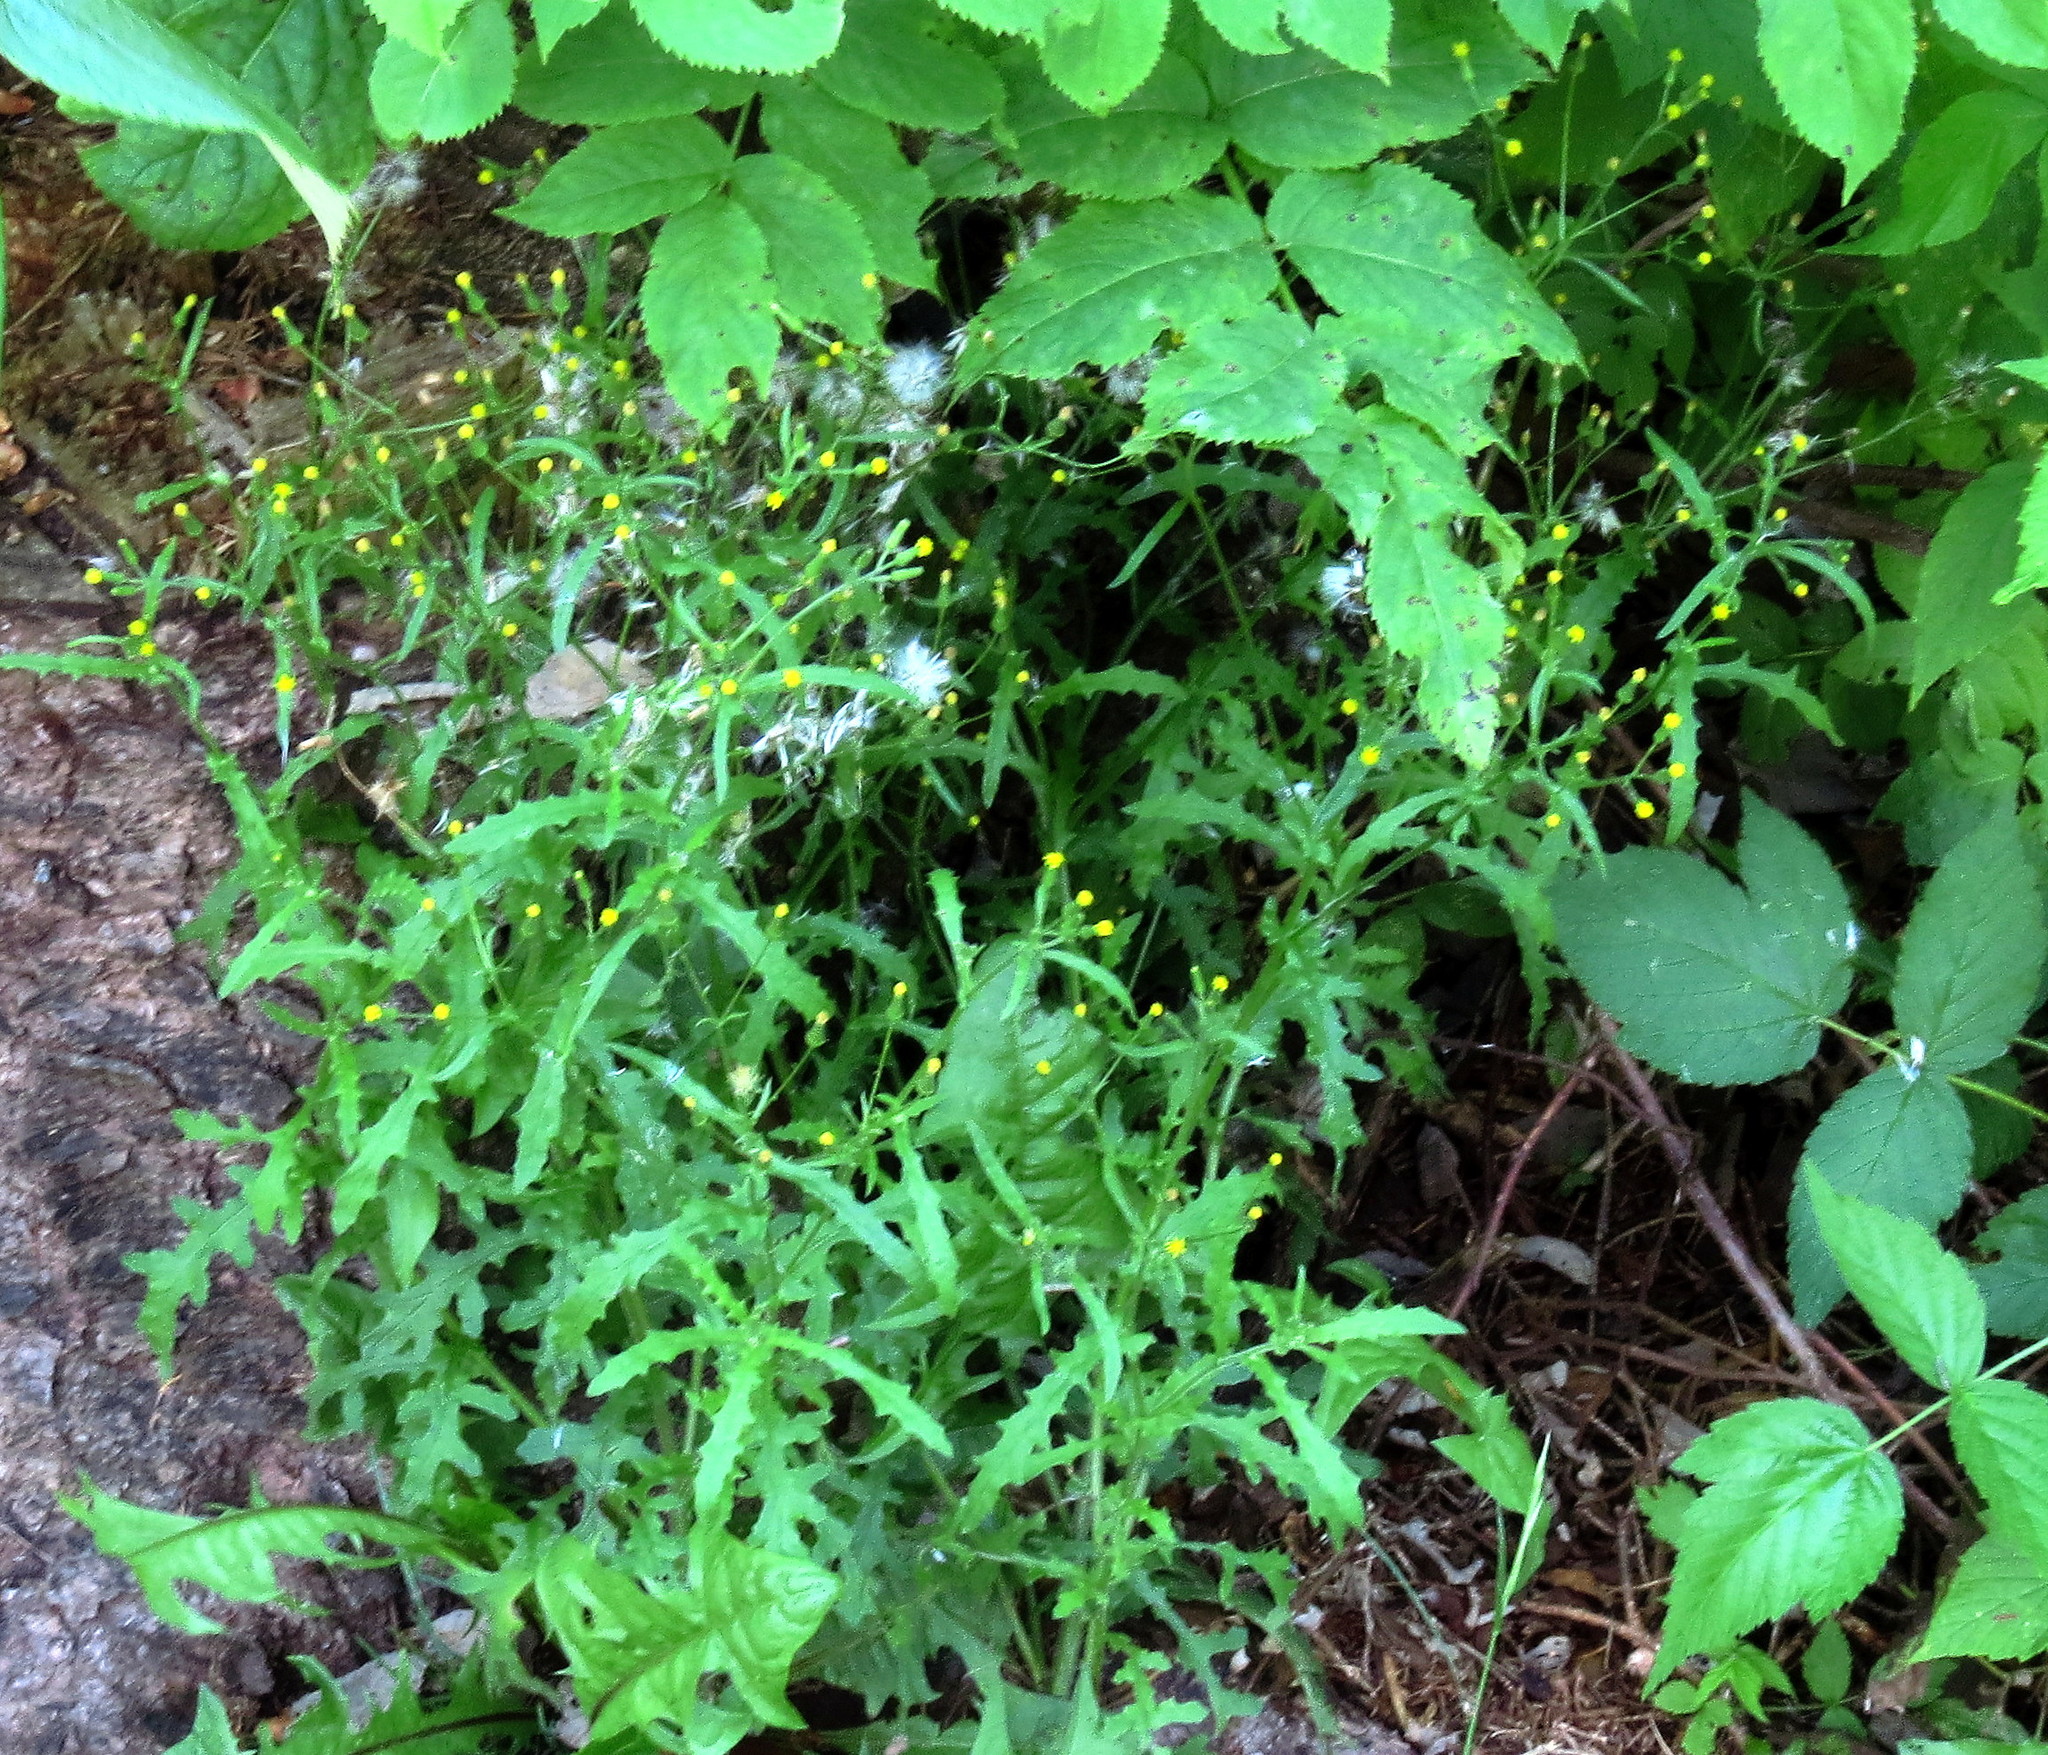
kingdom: Plantae
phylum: Tracheophyta
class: Magnoliopsida
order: Asterales
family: Asteraceae
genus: Senecio
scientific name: Senecio sylvaticus
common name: Woodland ragwort
